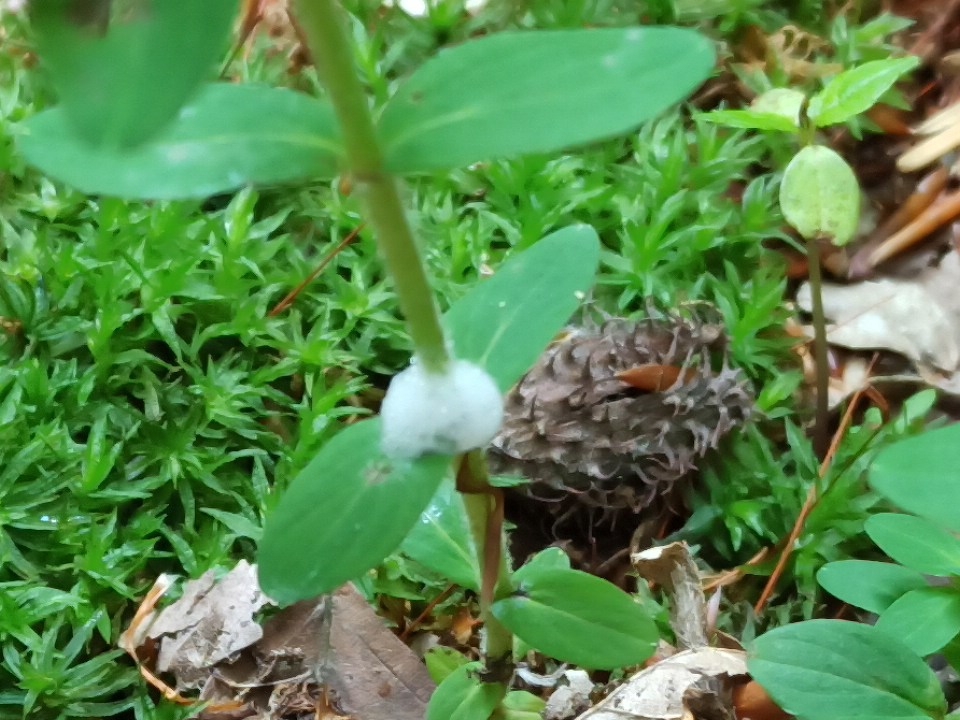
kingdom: Plantae
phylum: Tracheophyta
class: Magnoliopsida
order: Brassicales
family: Brassicaceae
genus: Cardamine
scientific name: Cardamine bulbifera
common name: Coralroot bittercress
